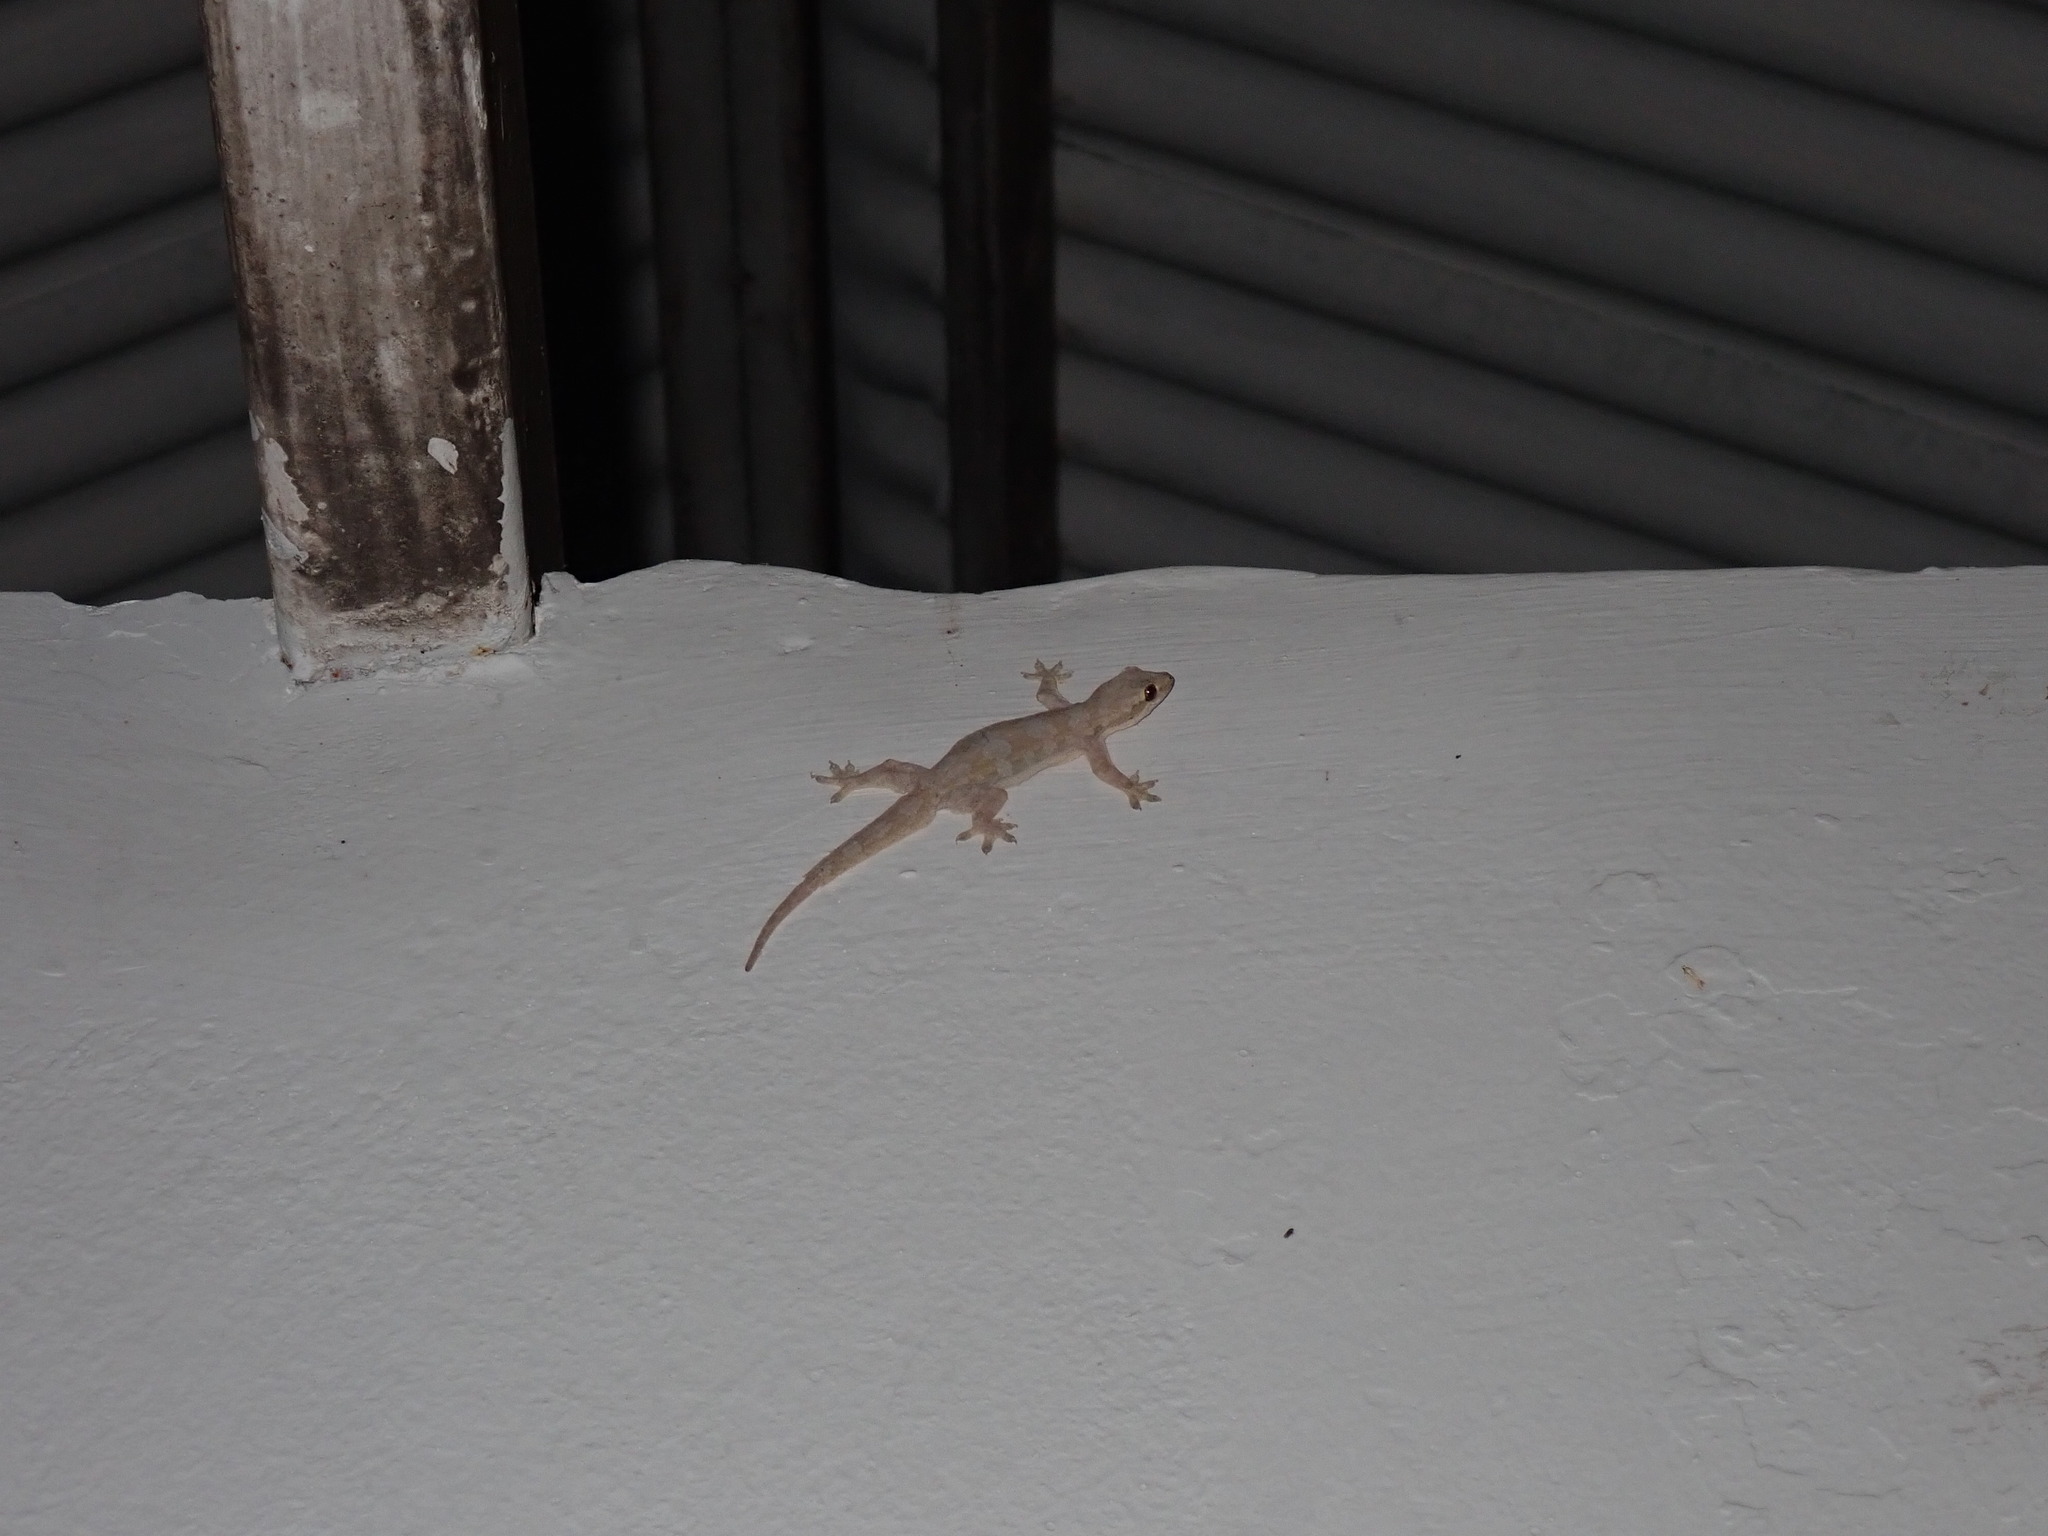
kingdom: Animalia
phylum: Chordata
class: Squamata
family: Gekkonidae
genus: Hemidactylus
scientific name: Hemidactylus platyurus
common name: Flat-tailed house gecko
